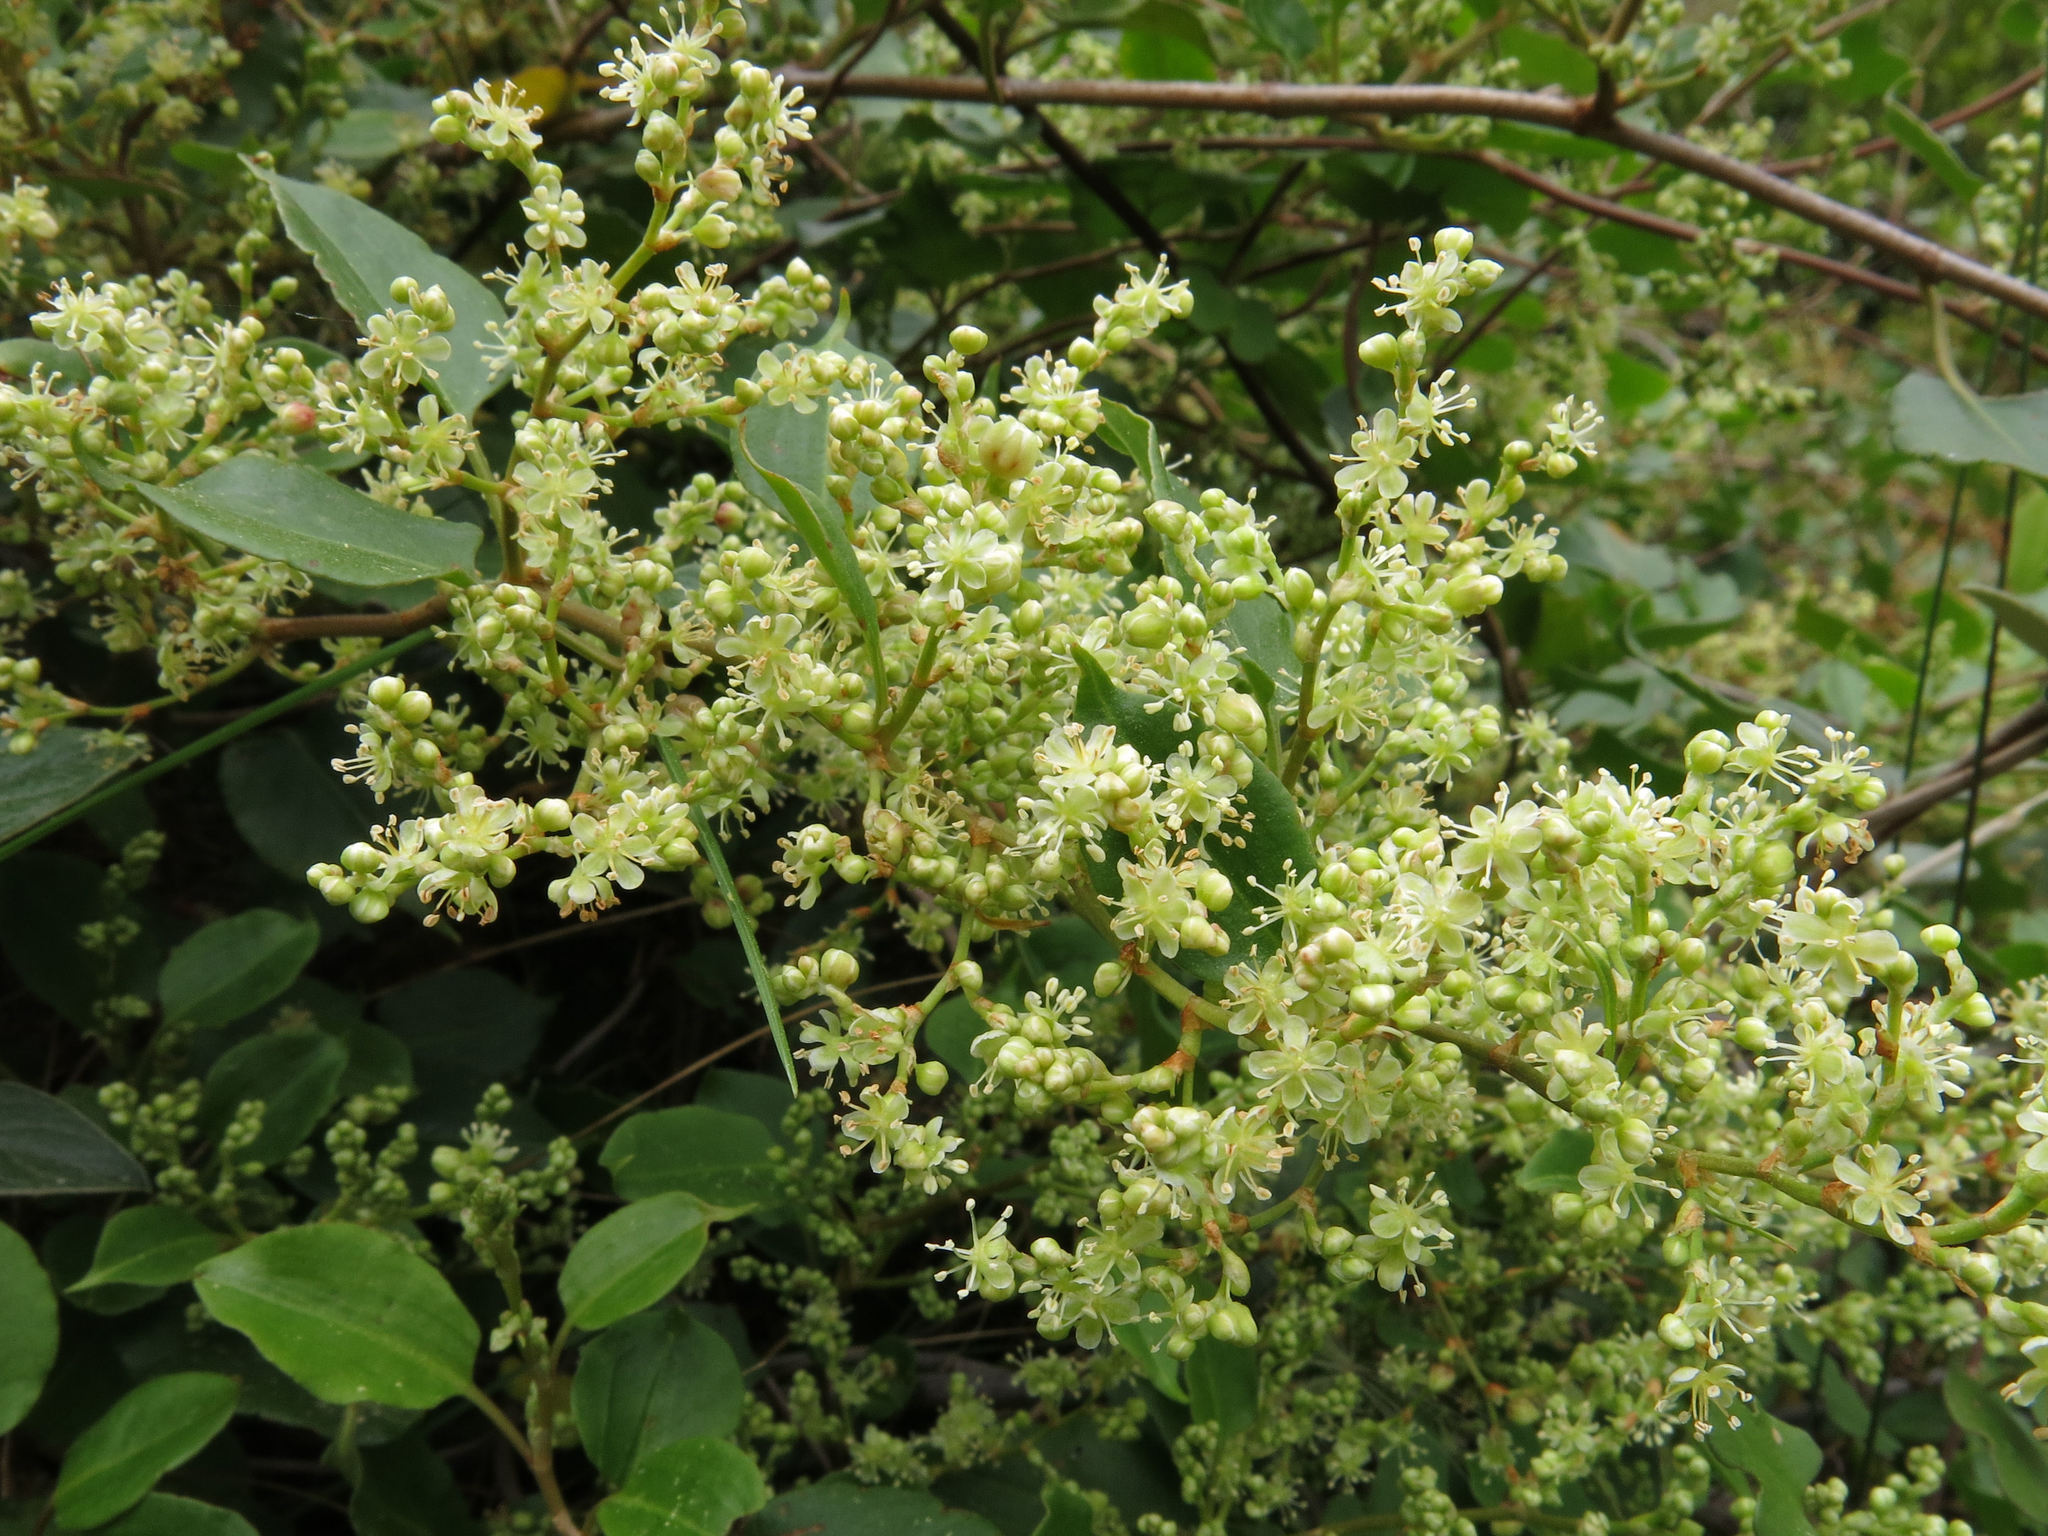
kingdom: Plantae
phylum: Tracheophyta
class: Magnoliopsida
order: Caryophyllales
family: Polygonaceae
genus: Muehlenbeckia
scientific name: Muehlenbeckia australis
